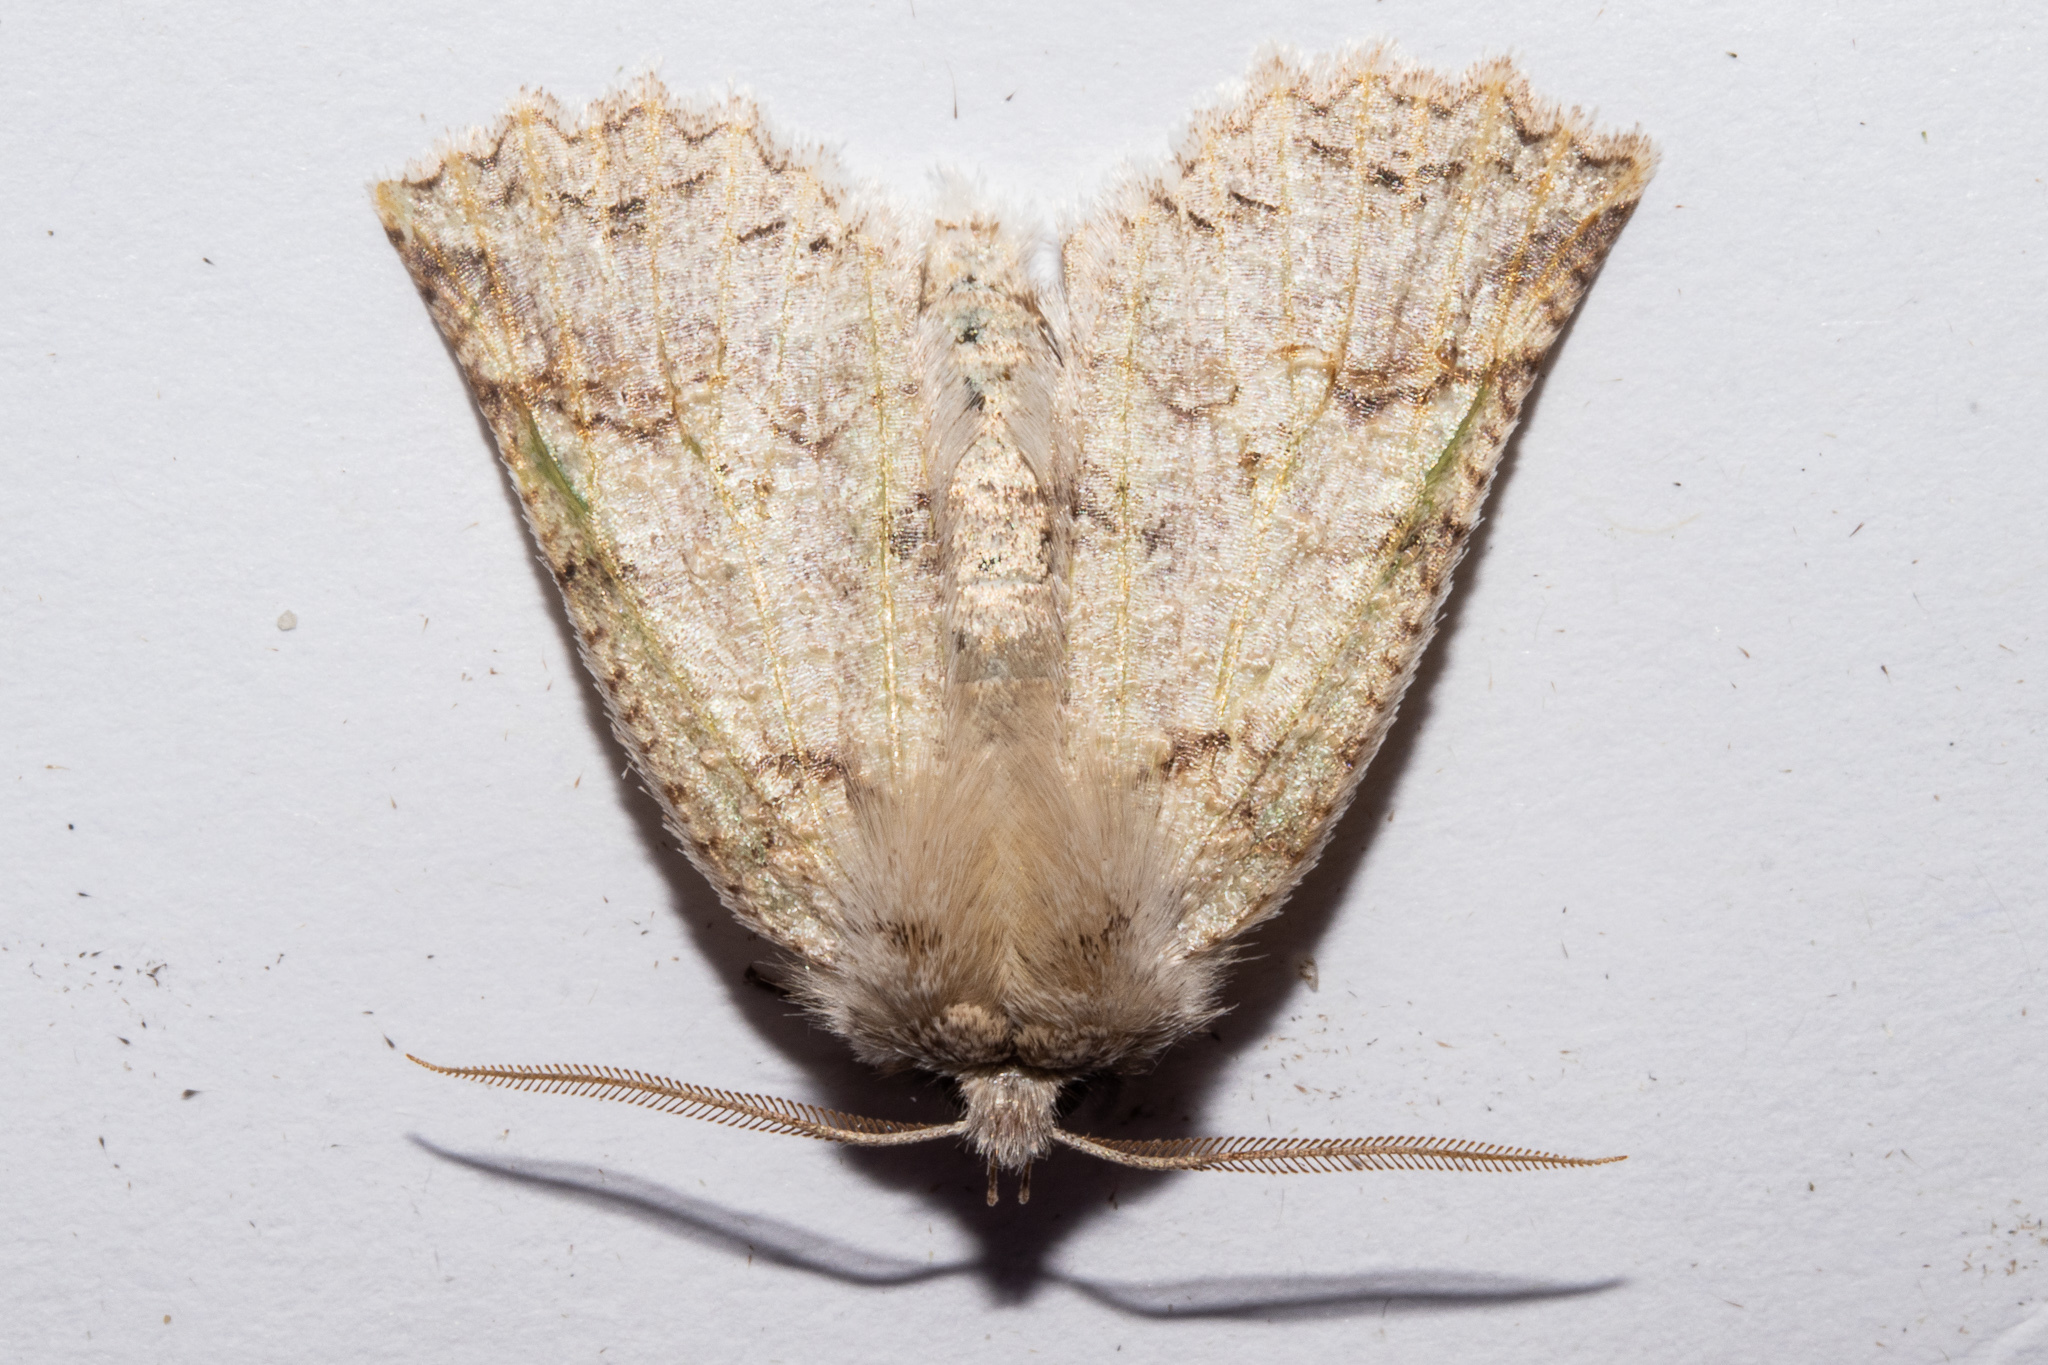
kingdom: Animalia
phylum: Arthropoda
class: Insecta
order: Lepidoptera
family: Geometridae
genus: Declana
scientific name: Declana floccosa
